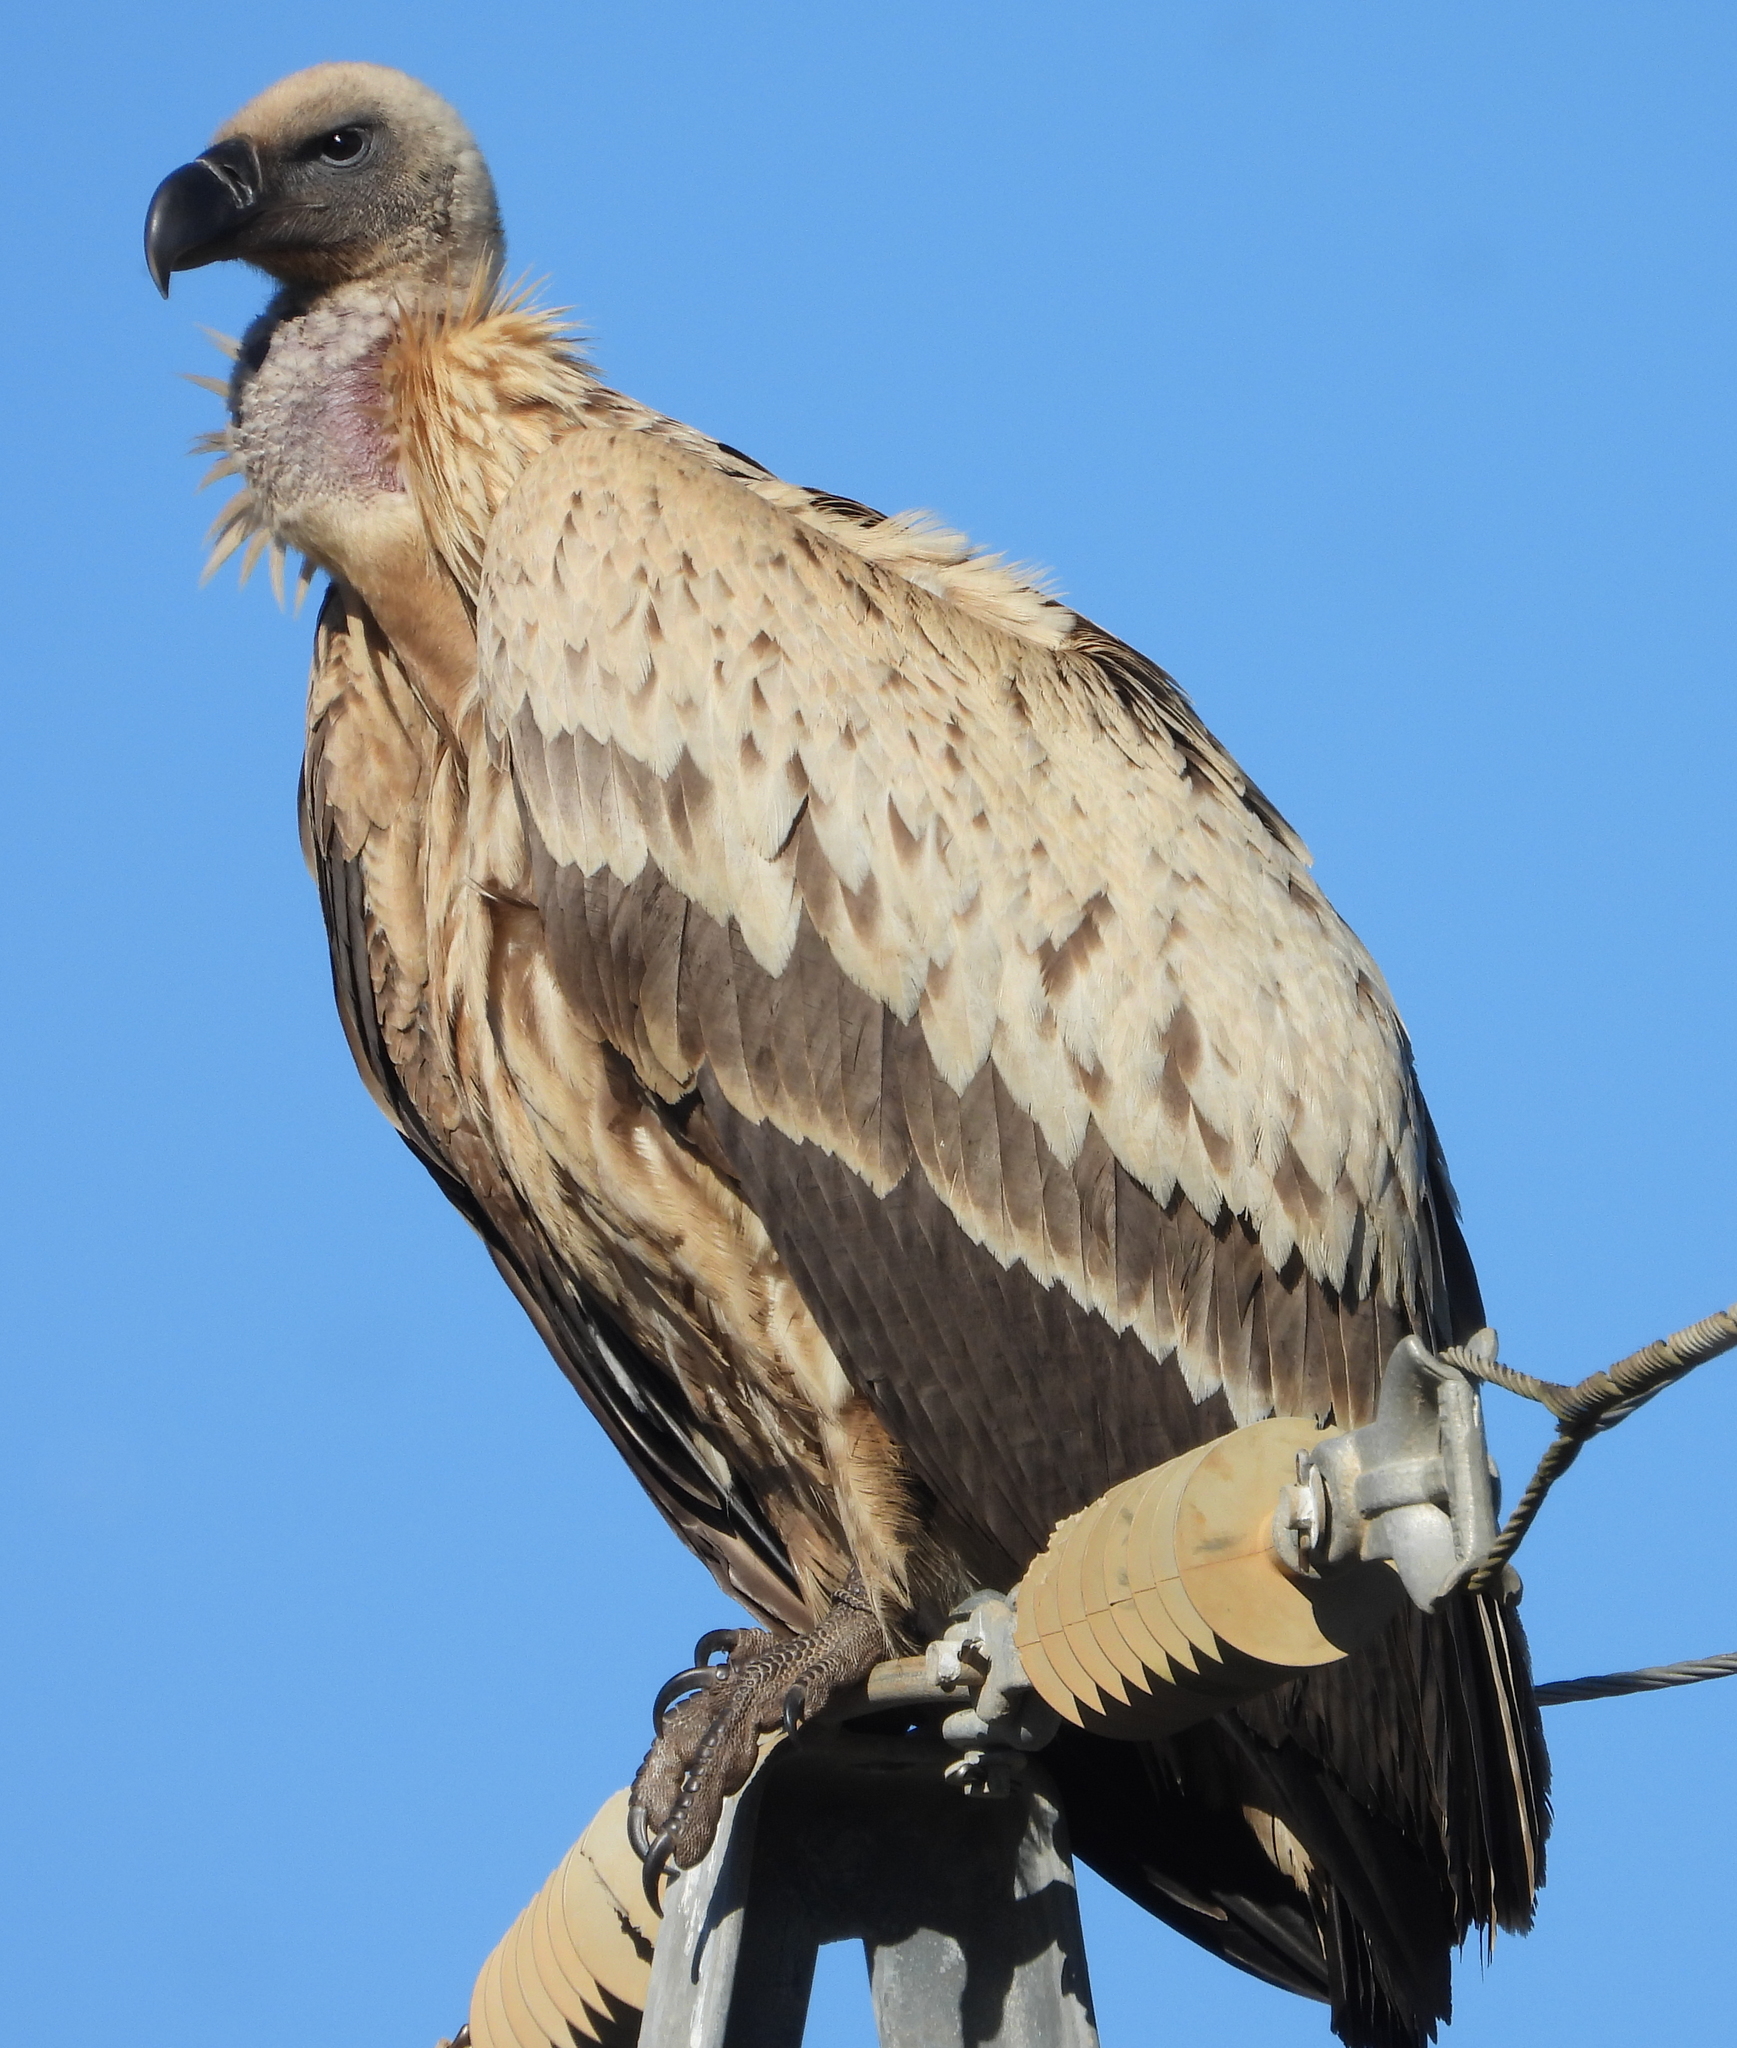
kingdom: Animalia
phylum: Chordata
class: Aves
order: Accipitriformes
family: Accipitridae
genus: Gyps
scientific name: Gyps coprotheres
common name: Cape vulture
